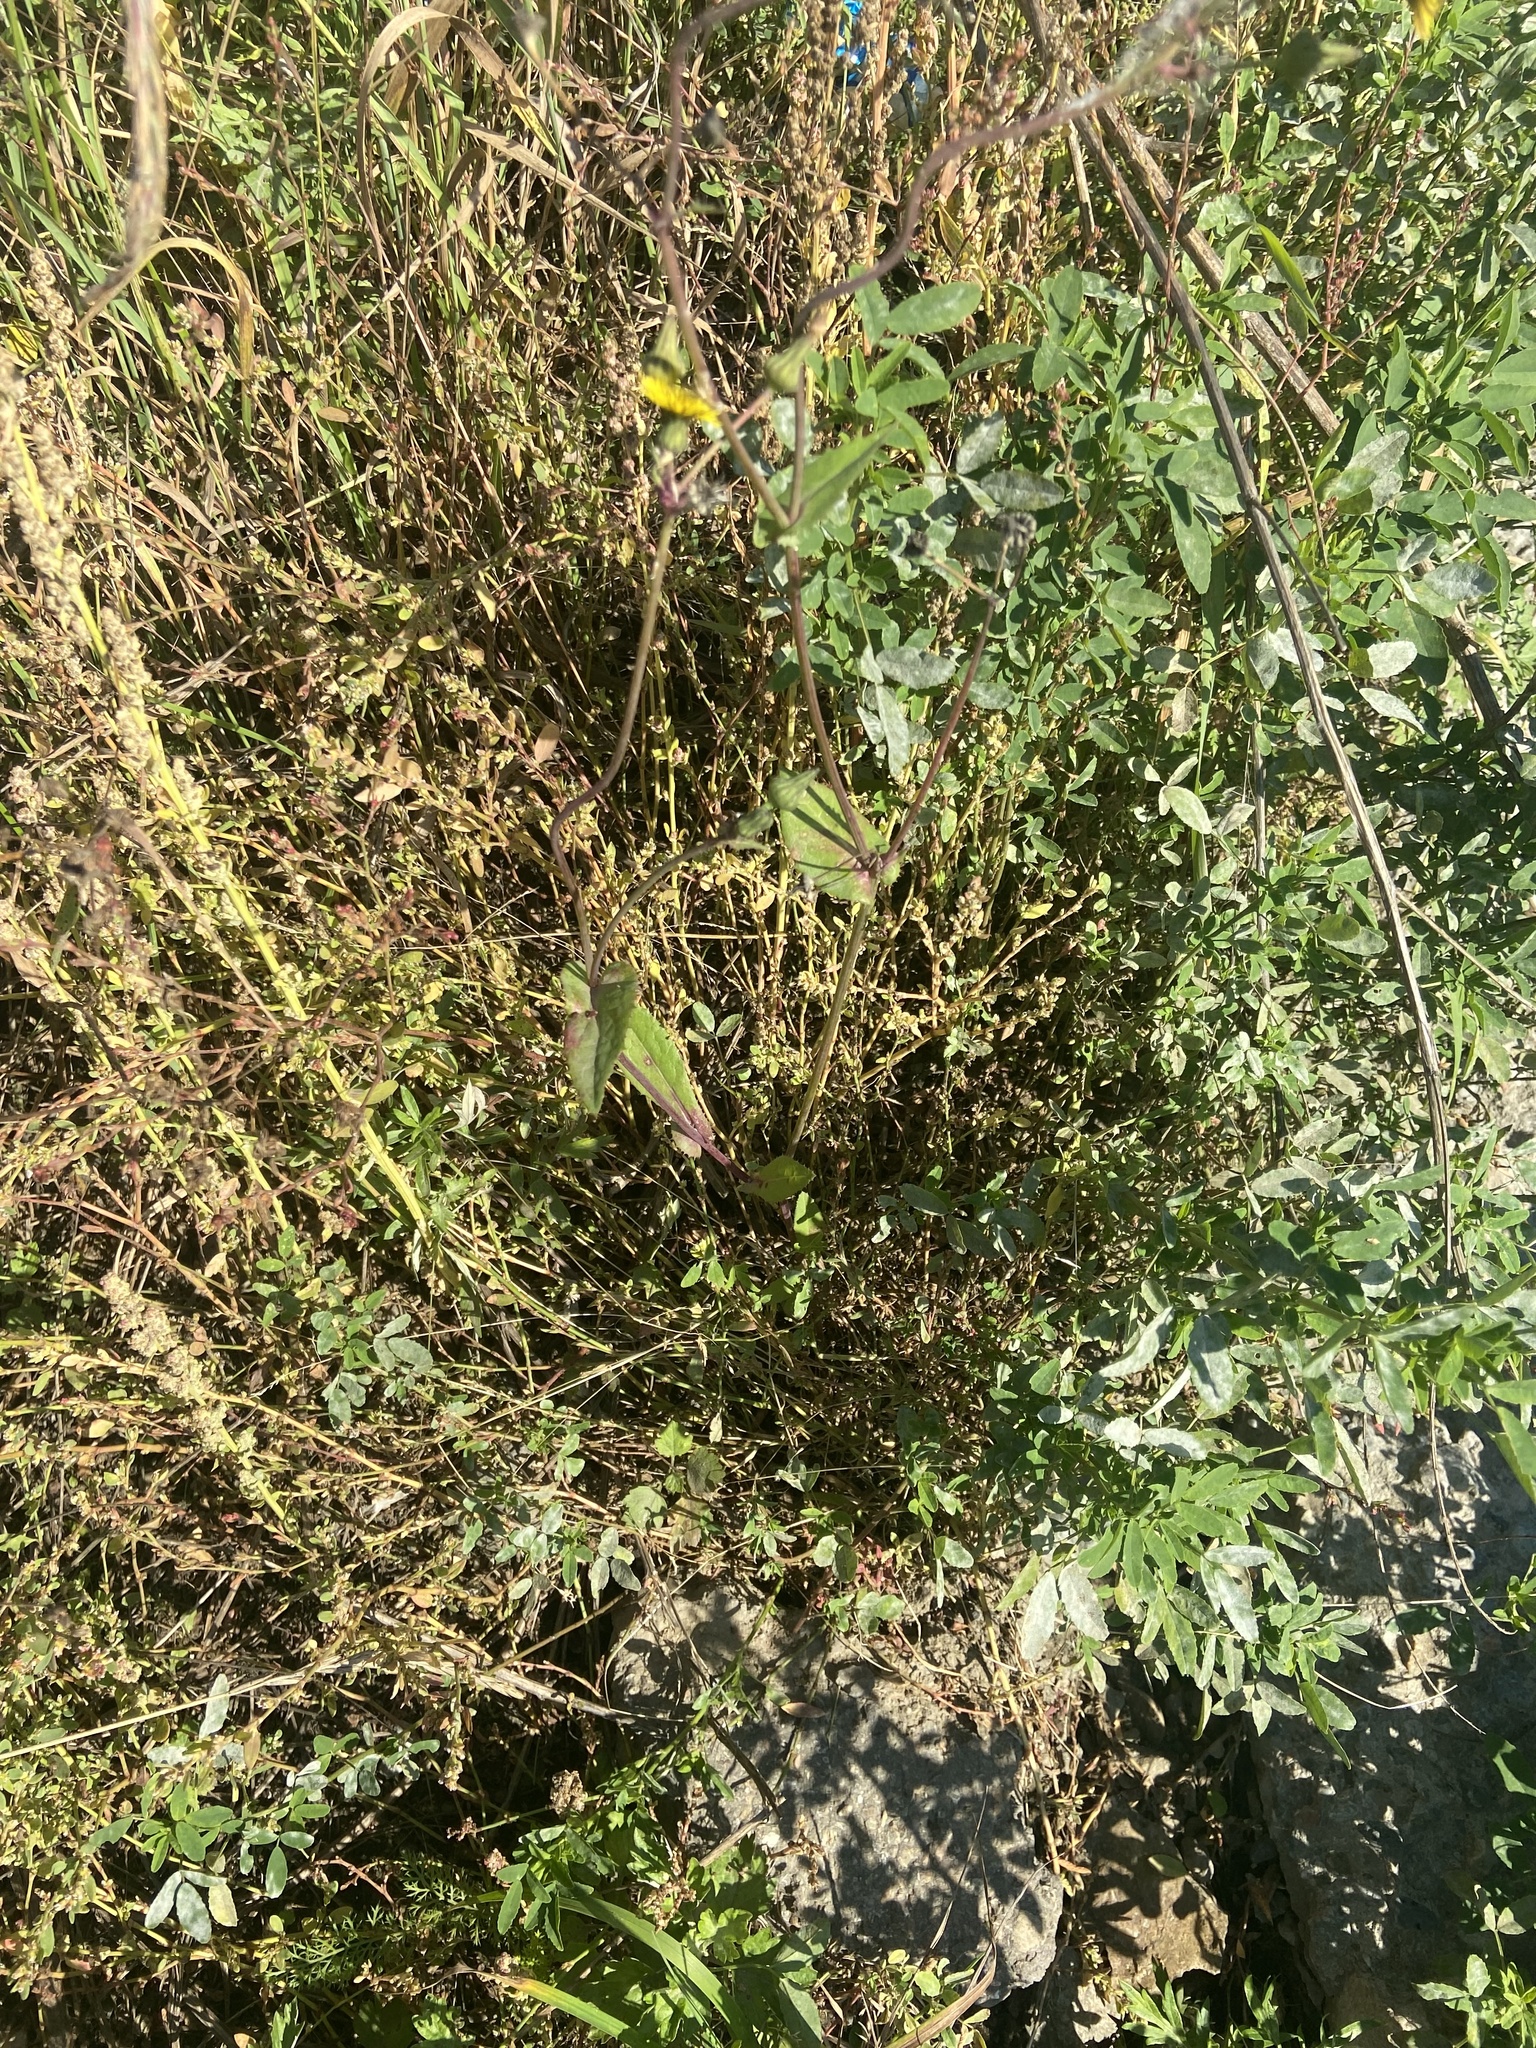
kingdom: Plantae
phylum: Tracheophyta
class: Magnoliopsida
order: Asterales
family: Asteraceae
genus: Sonchus
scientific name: Sonchus oleraceus
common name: Common sowthistle
